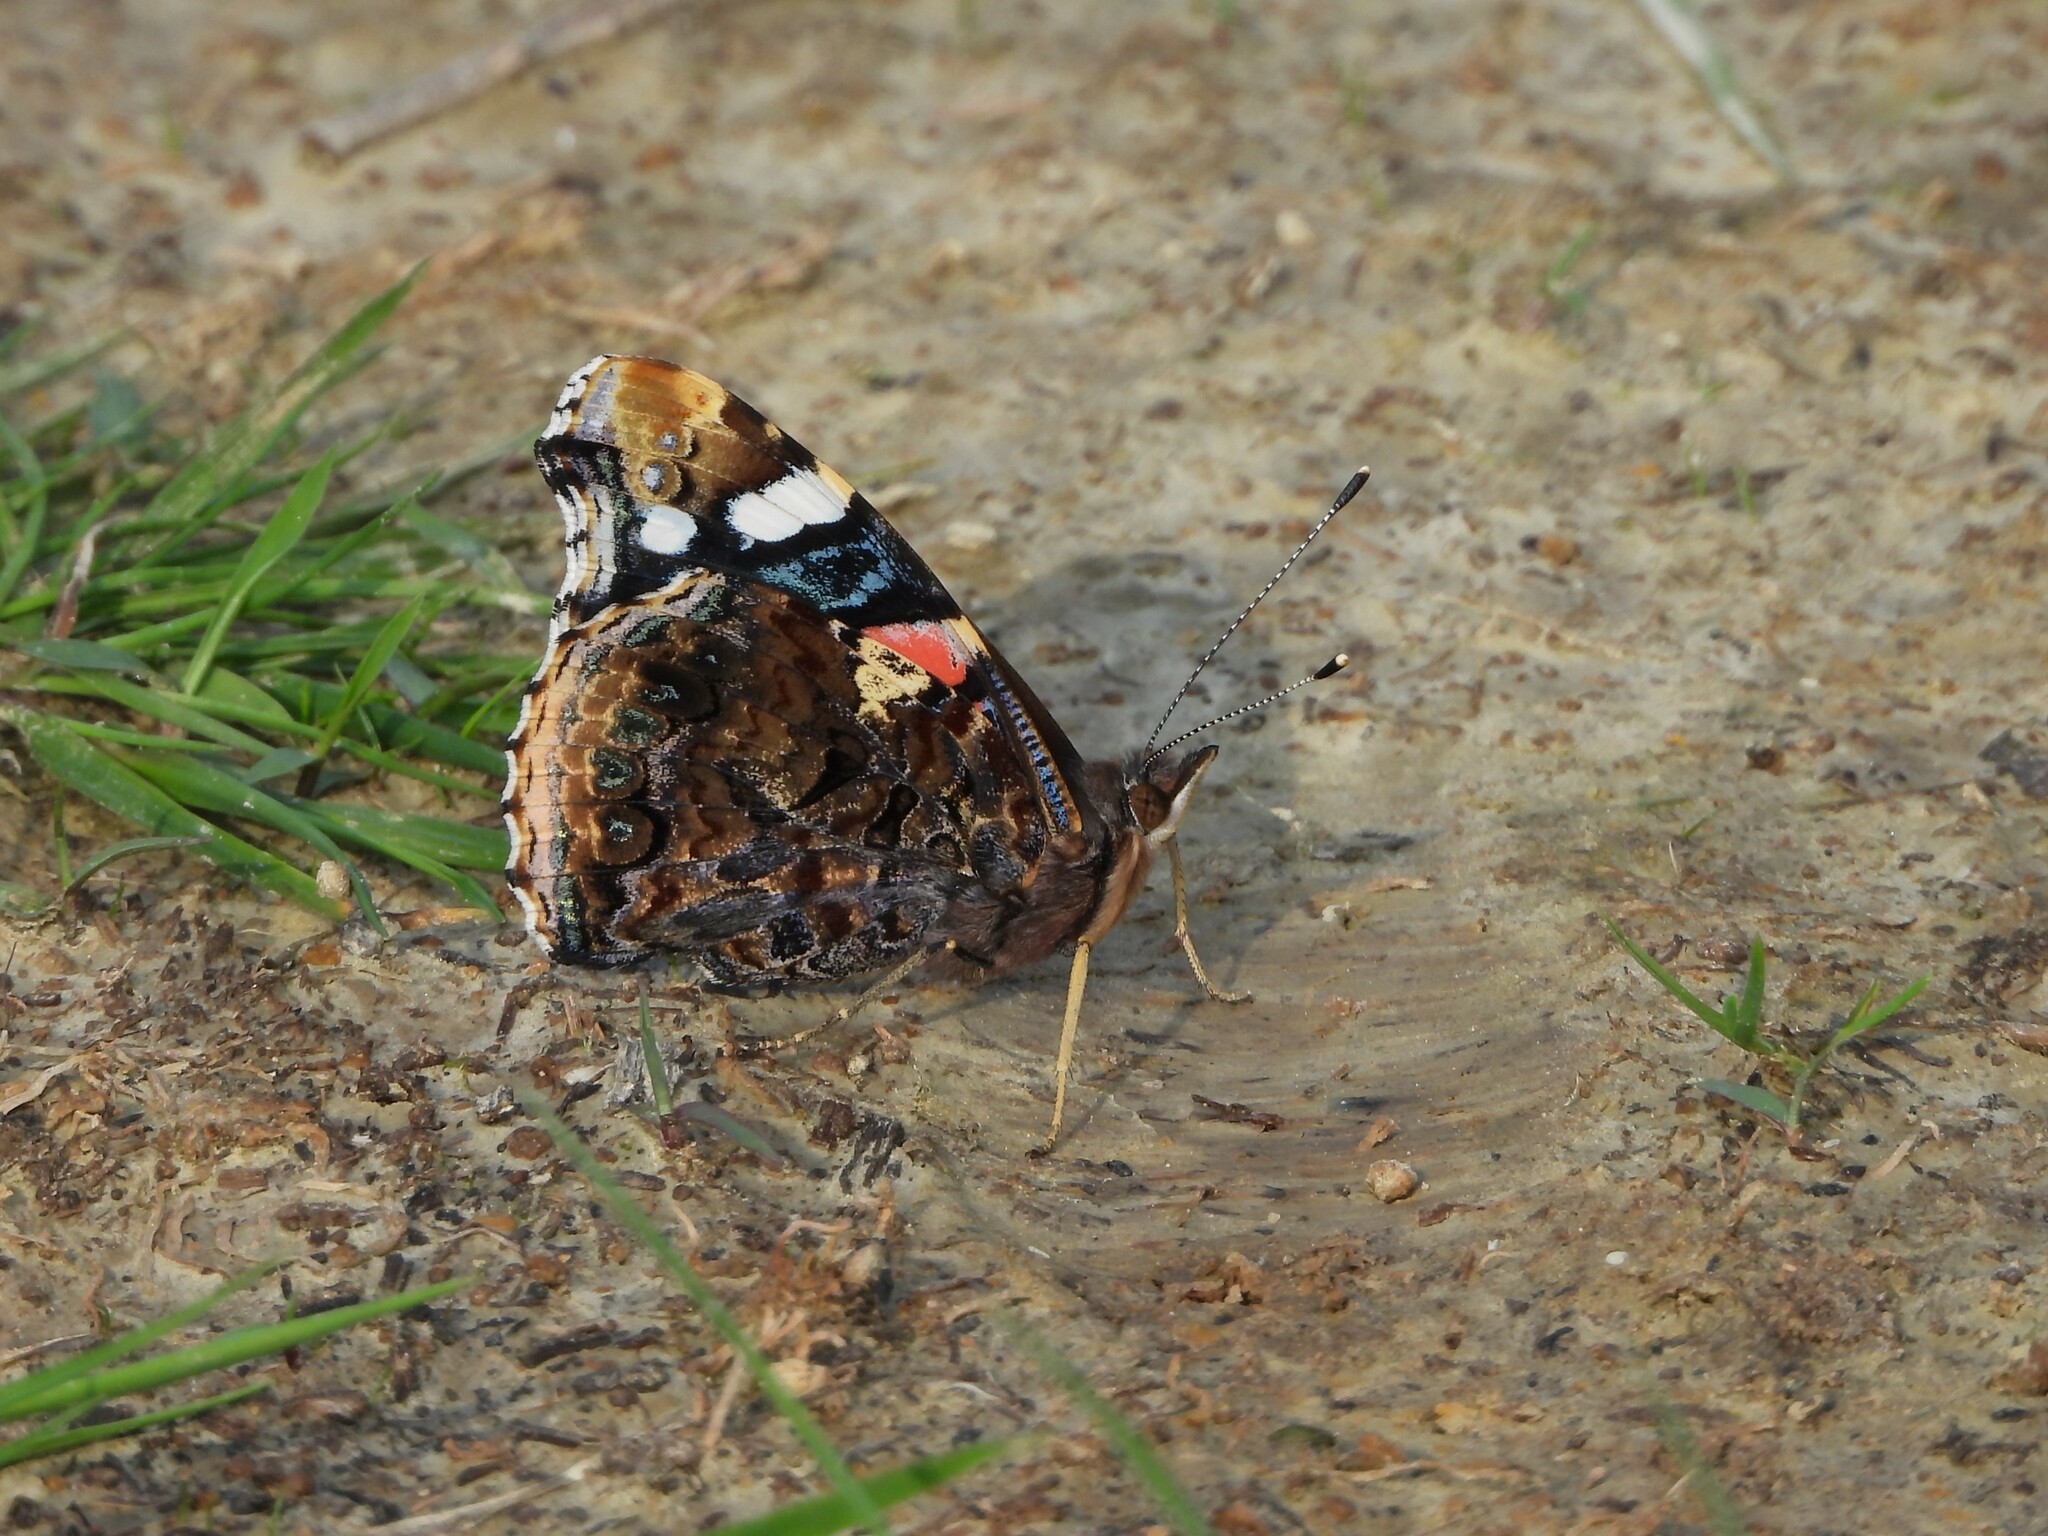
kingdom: Animalia
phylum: Arthropoda
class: Insecta
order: Lepidoptera
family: Nymphalidae
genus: Vanessa
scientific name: Vanessa atalanta
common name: Red admiral
